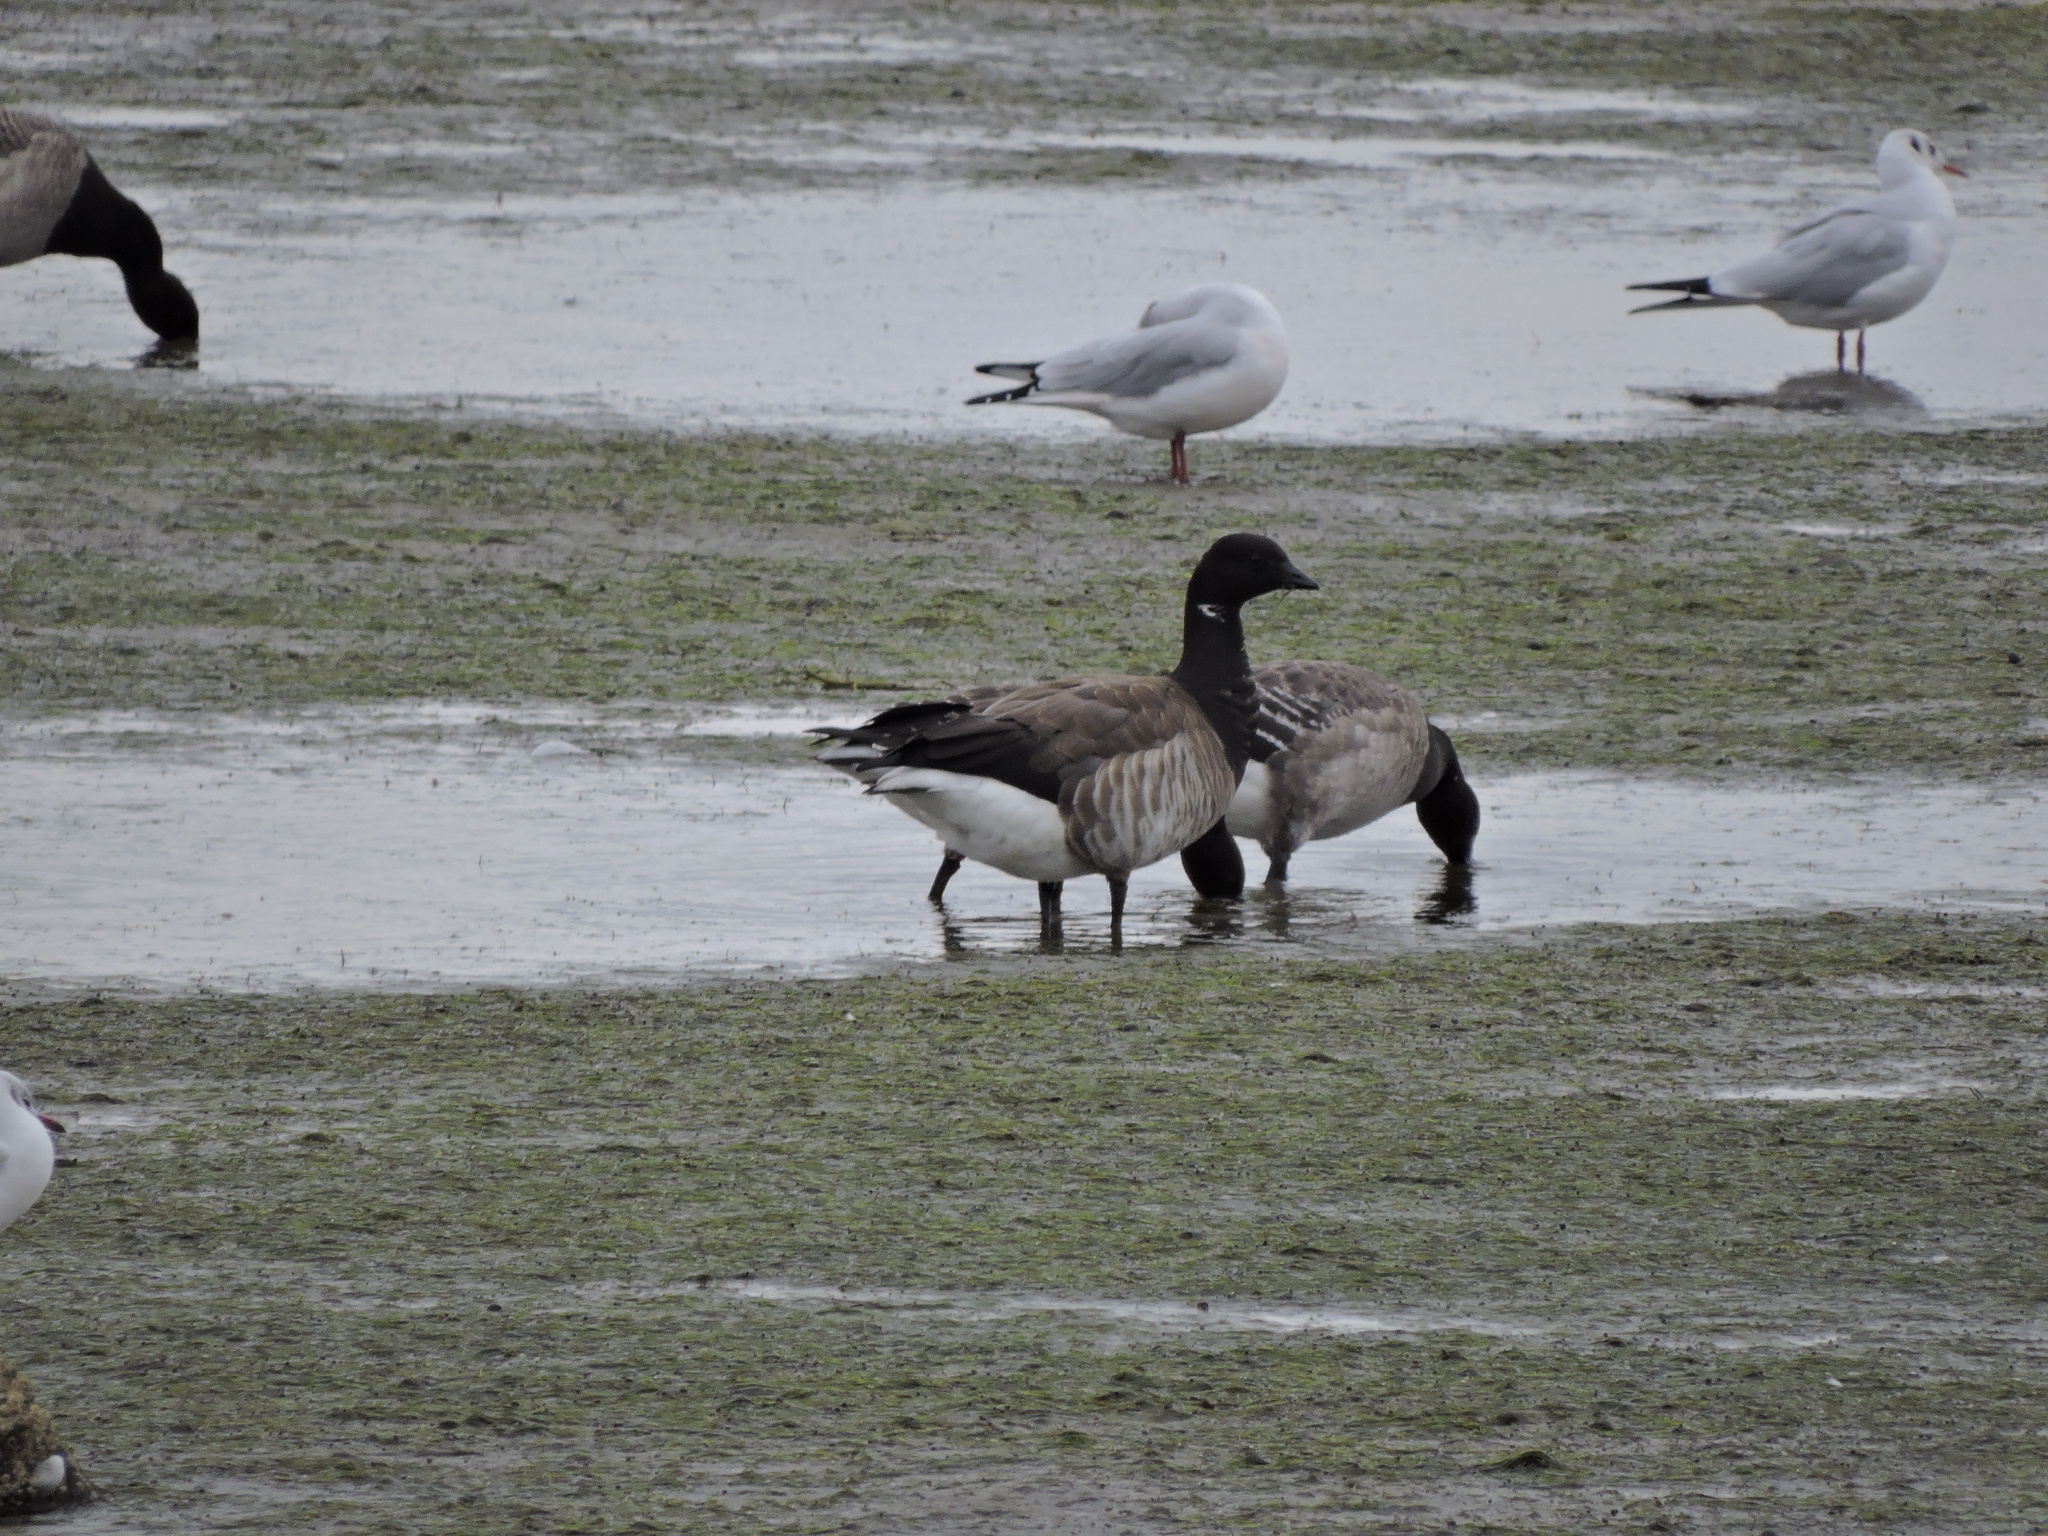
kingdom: Animalia
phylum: Chordata
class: Aves
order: Anseriformes
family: Anatidae
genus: Branta
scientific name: Branta bernicla
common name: Brant goose
